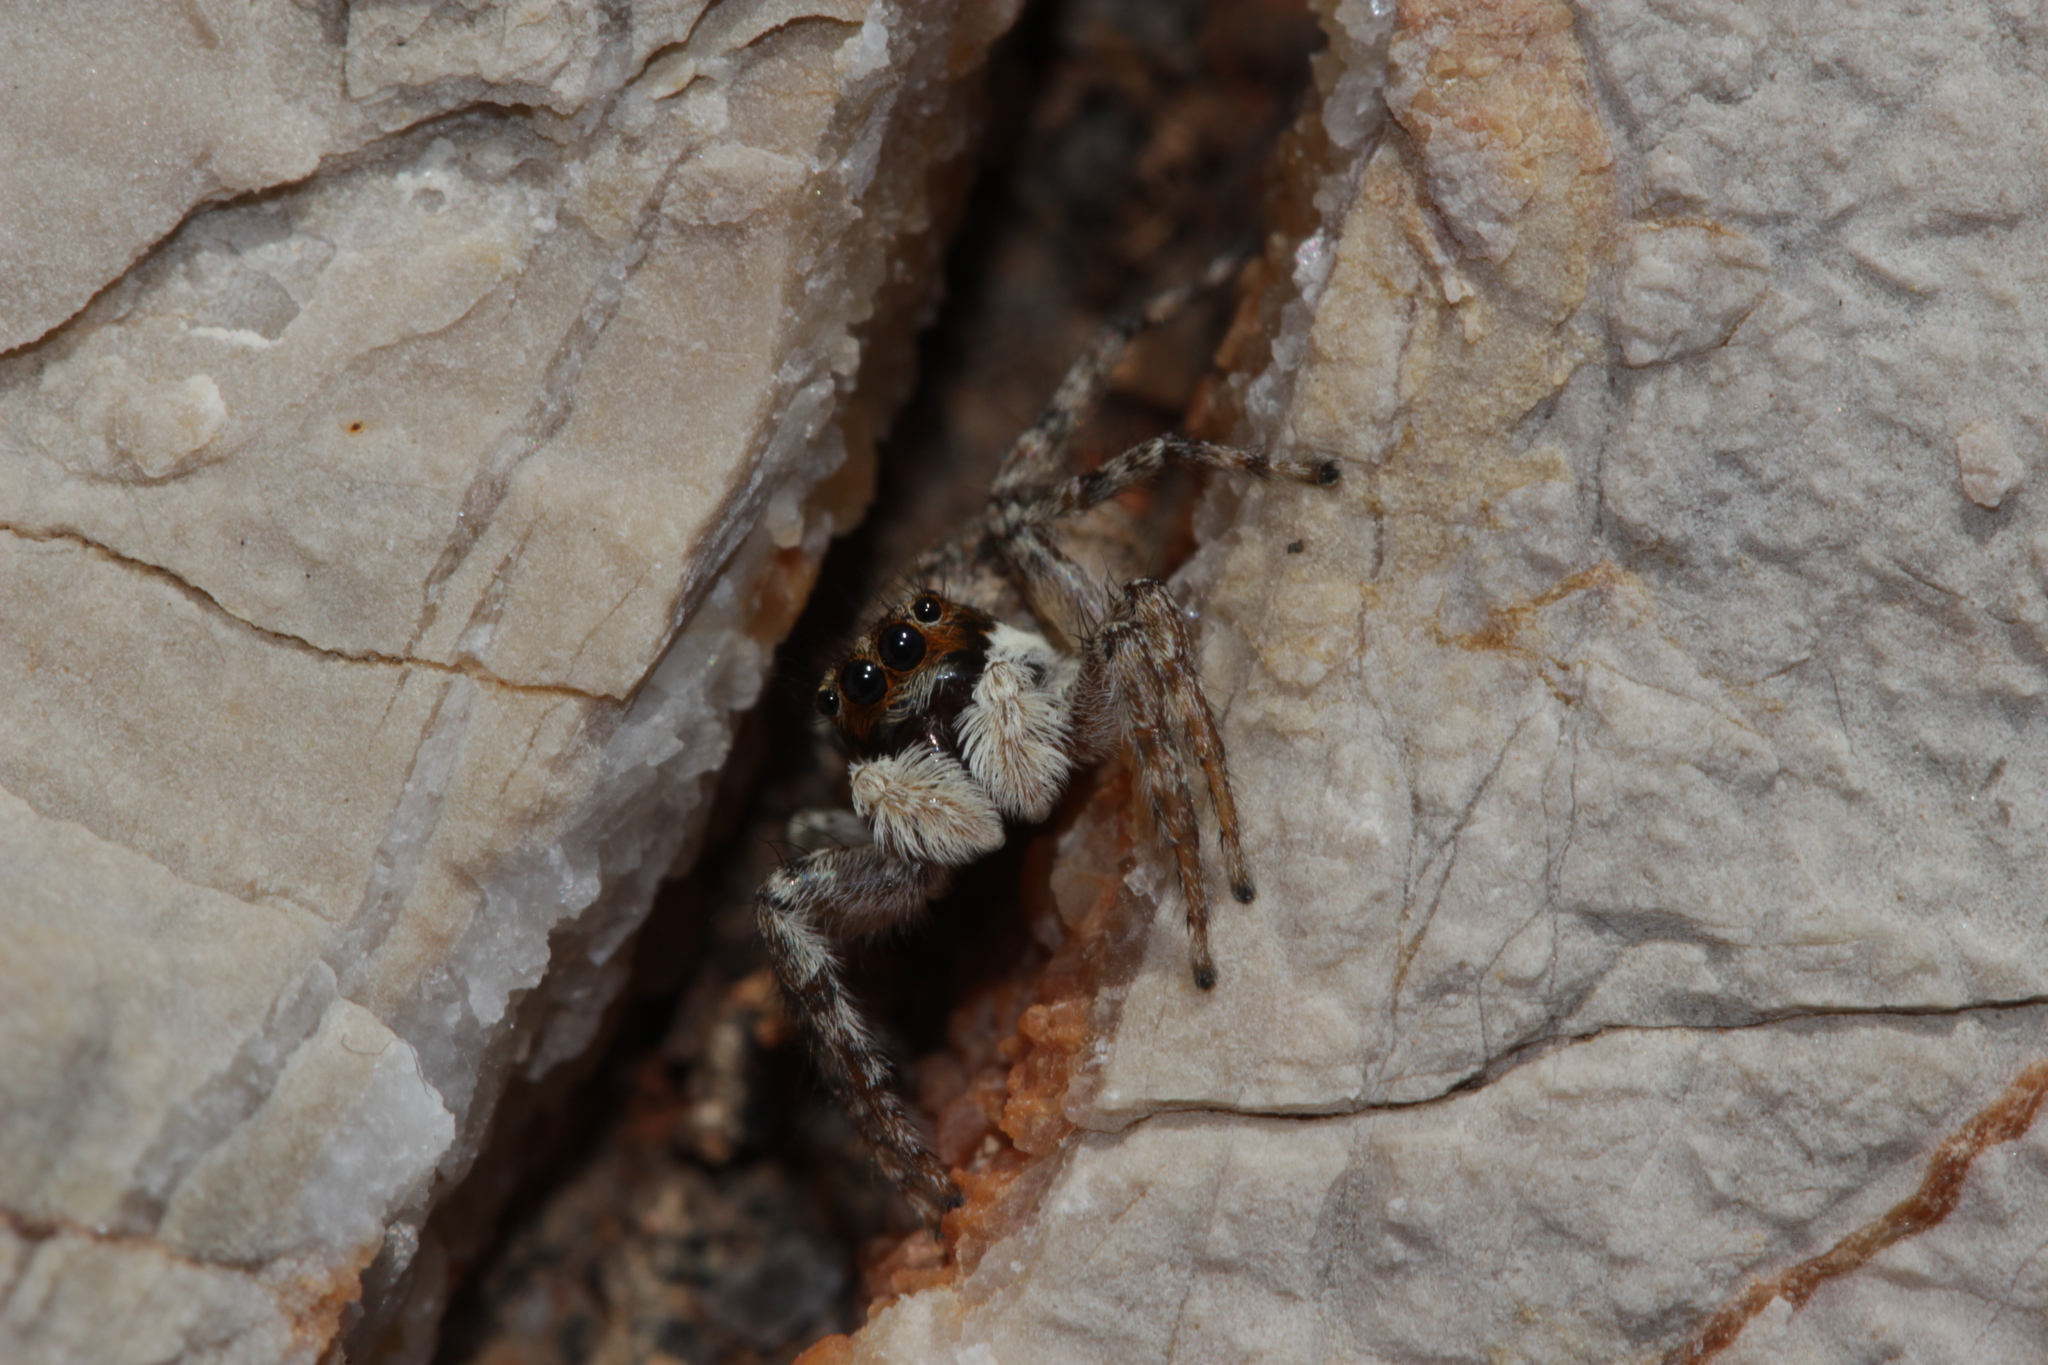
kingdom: Animalia
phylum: Arthropoda
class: Arachnida
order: Araneae
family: Salticidae
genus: Menemerus
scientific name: Menemerus semilimbatus
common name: Jumping spider
